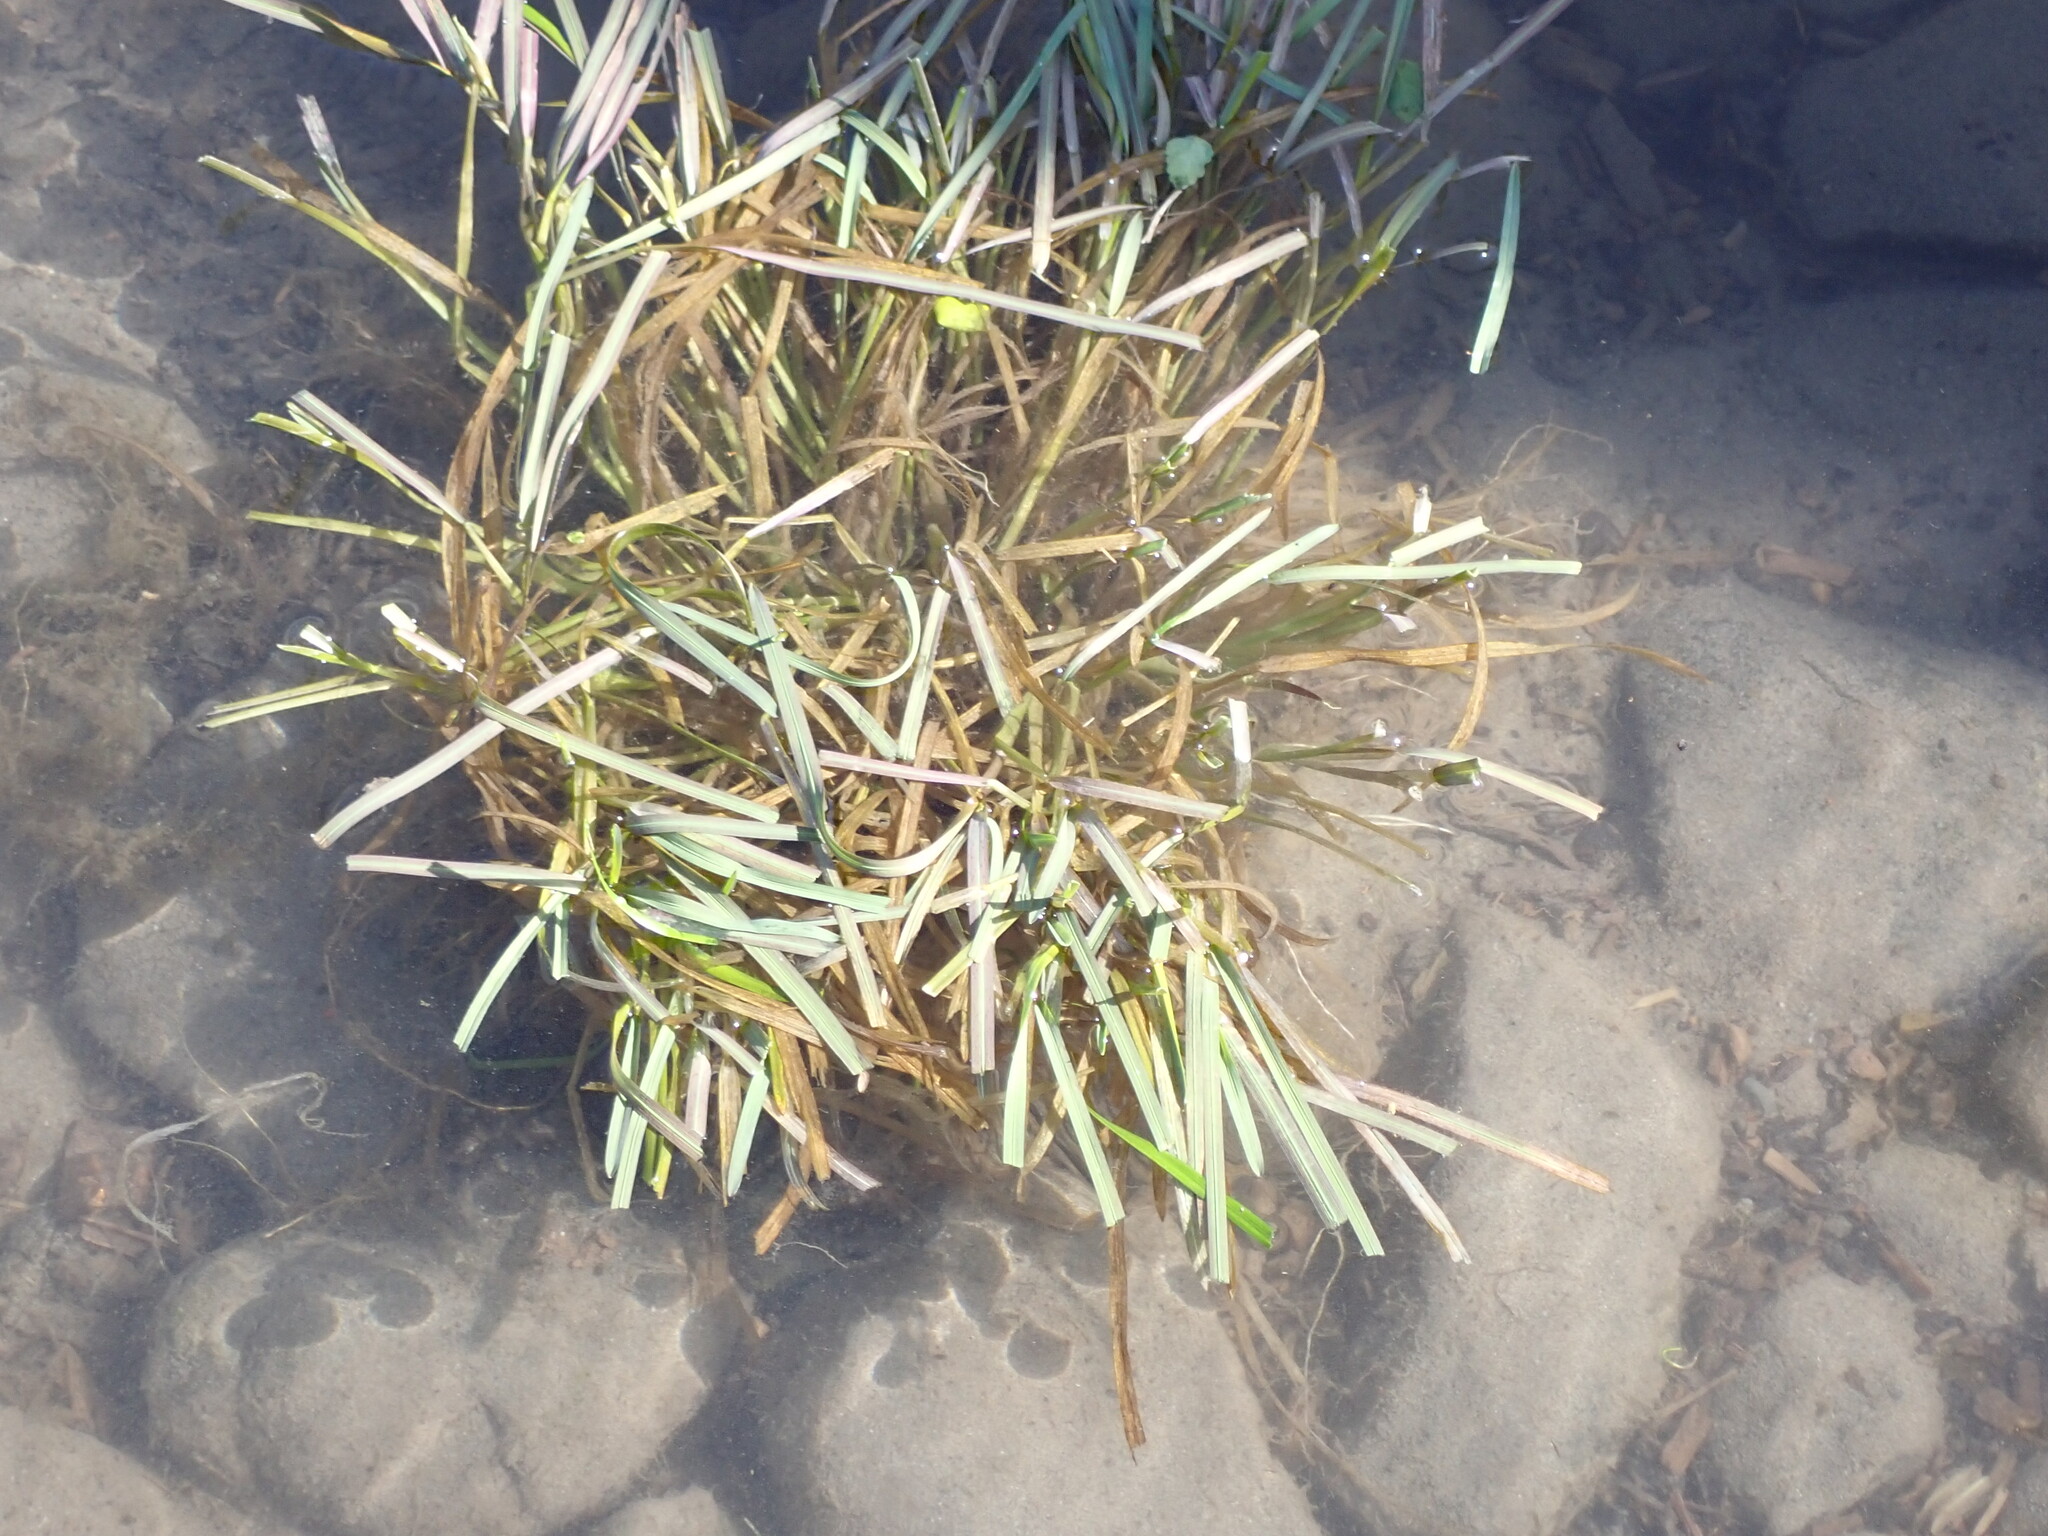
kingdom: Plantae
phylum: Tracheophyta
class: Liliopsida
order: Poales
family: Poaceae
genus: Glyceria
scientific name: Glyceria fluitans
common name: Floating sweet-grass
